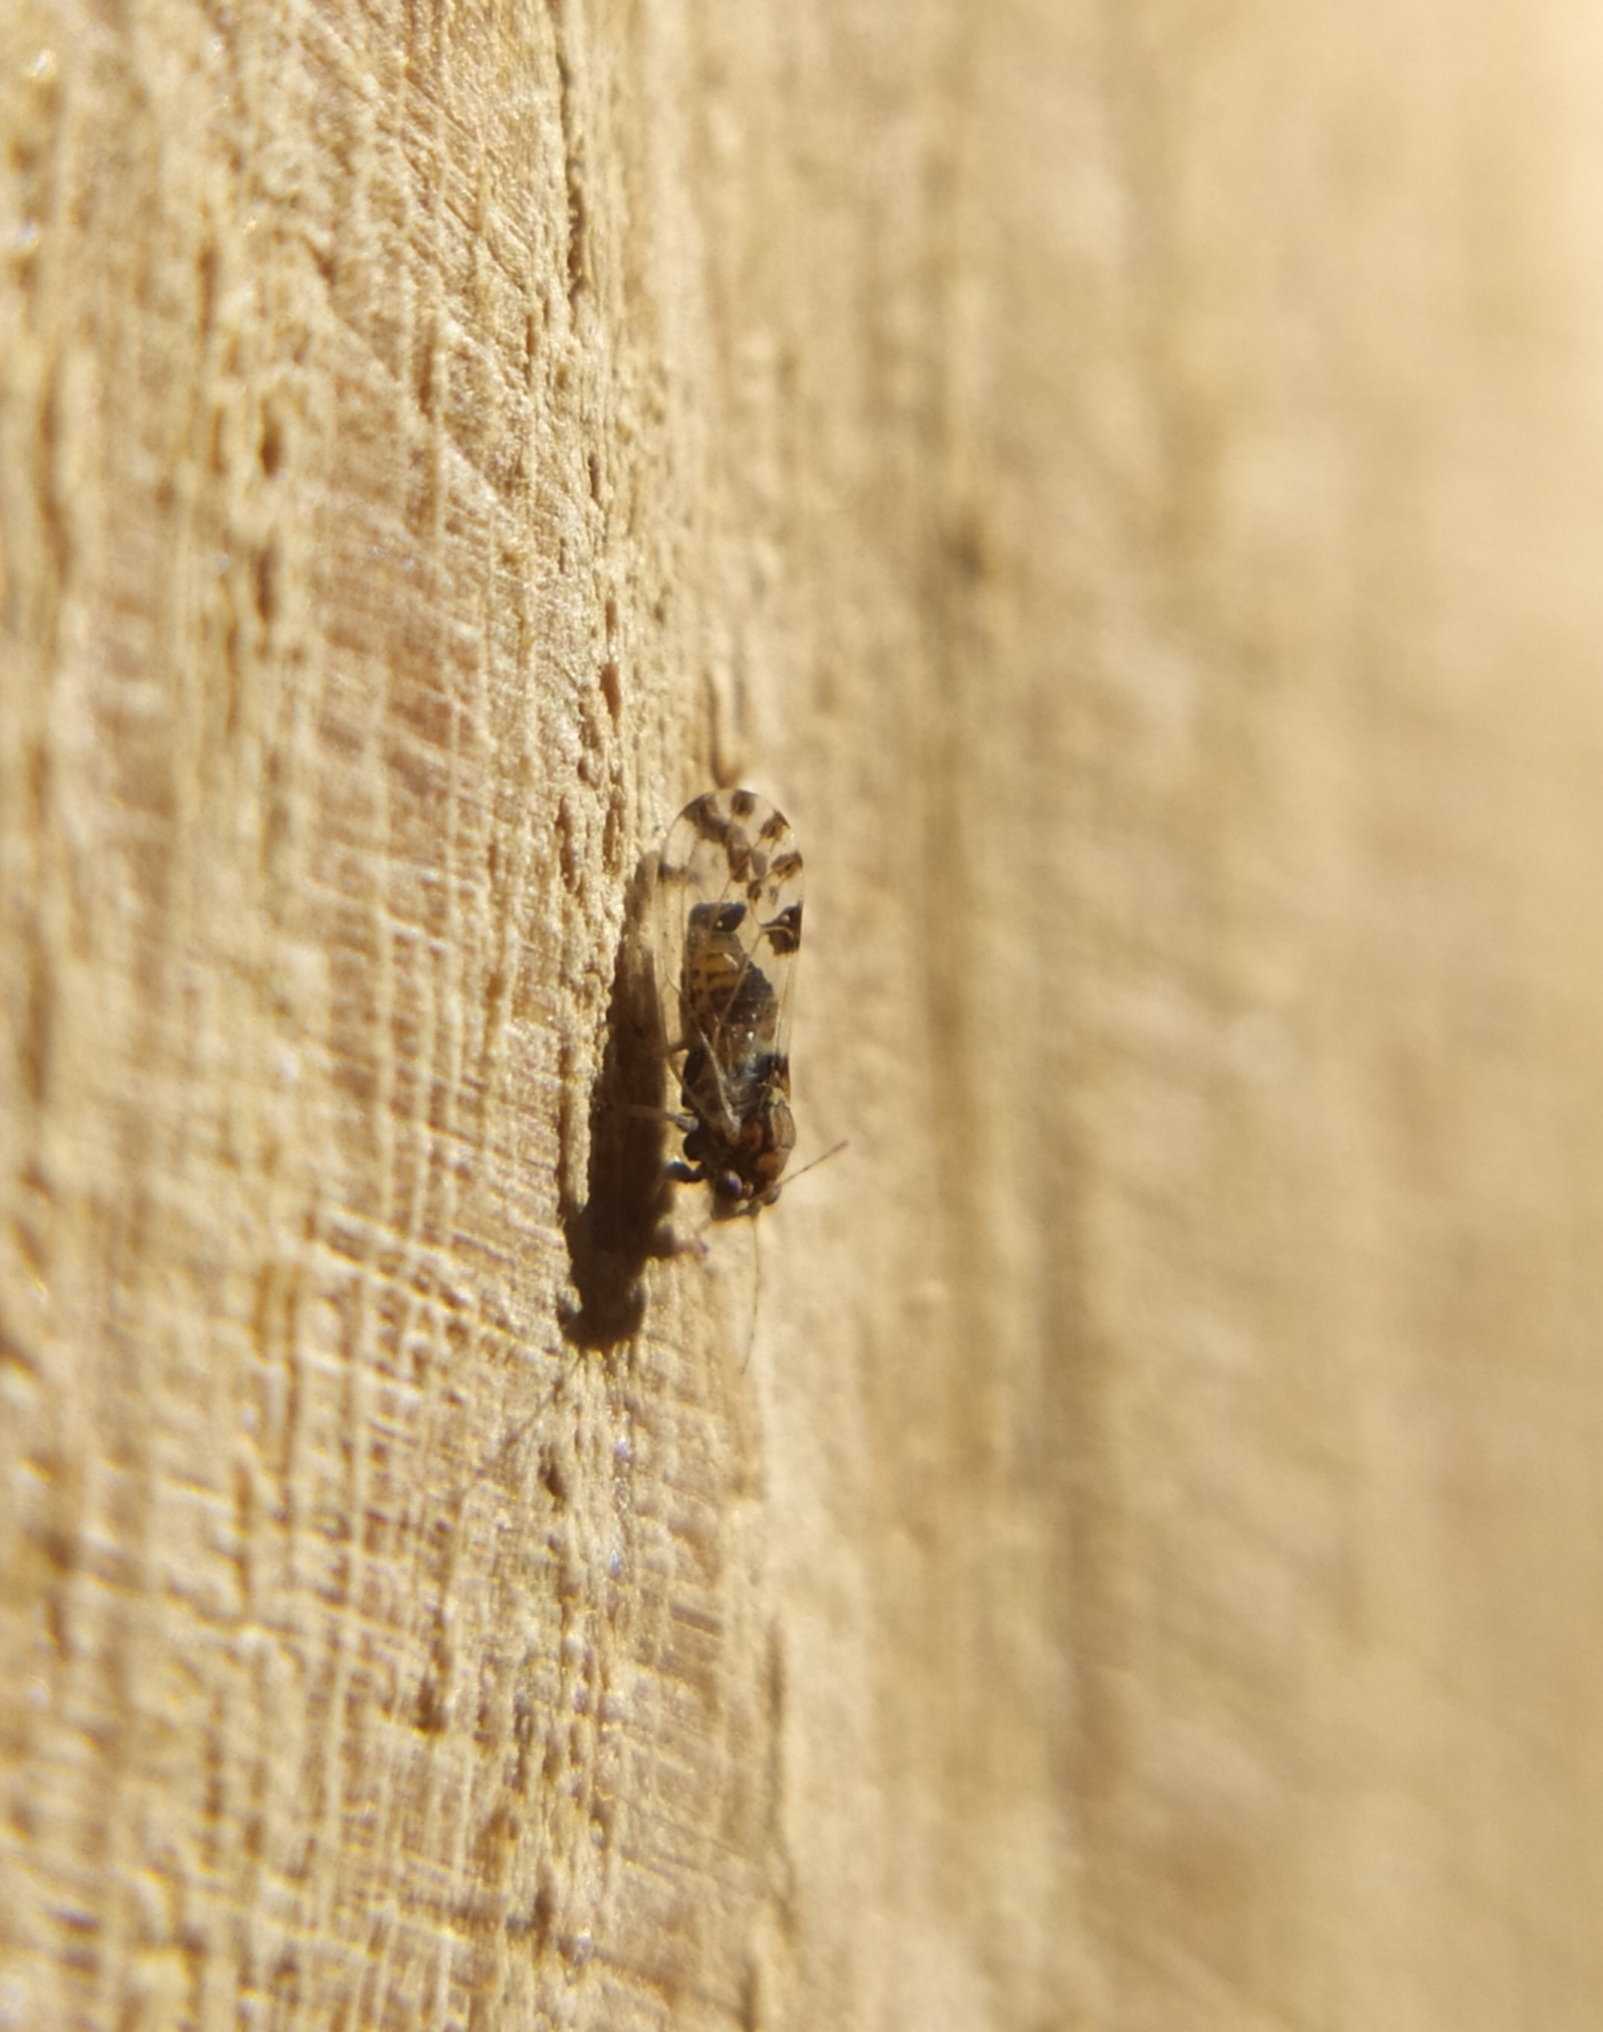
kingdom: Animalia
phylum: Arthropoda
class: Insecta
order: Hemiptera
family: Psyllidae
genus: Cacopsylla
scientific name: Cacopsylla pulchella
